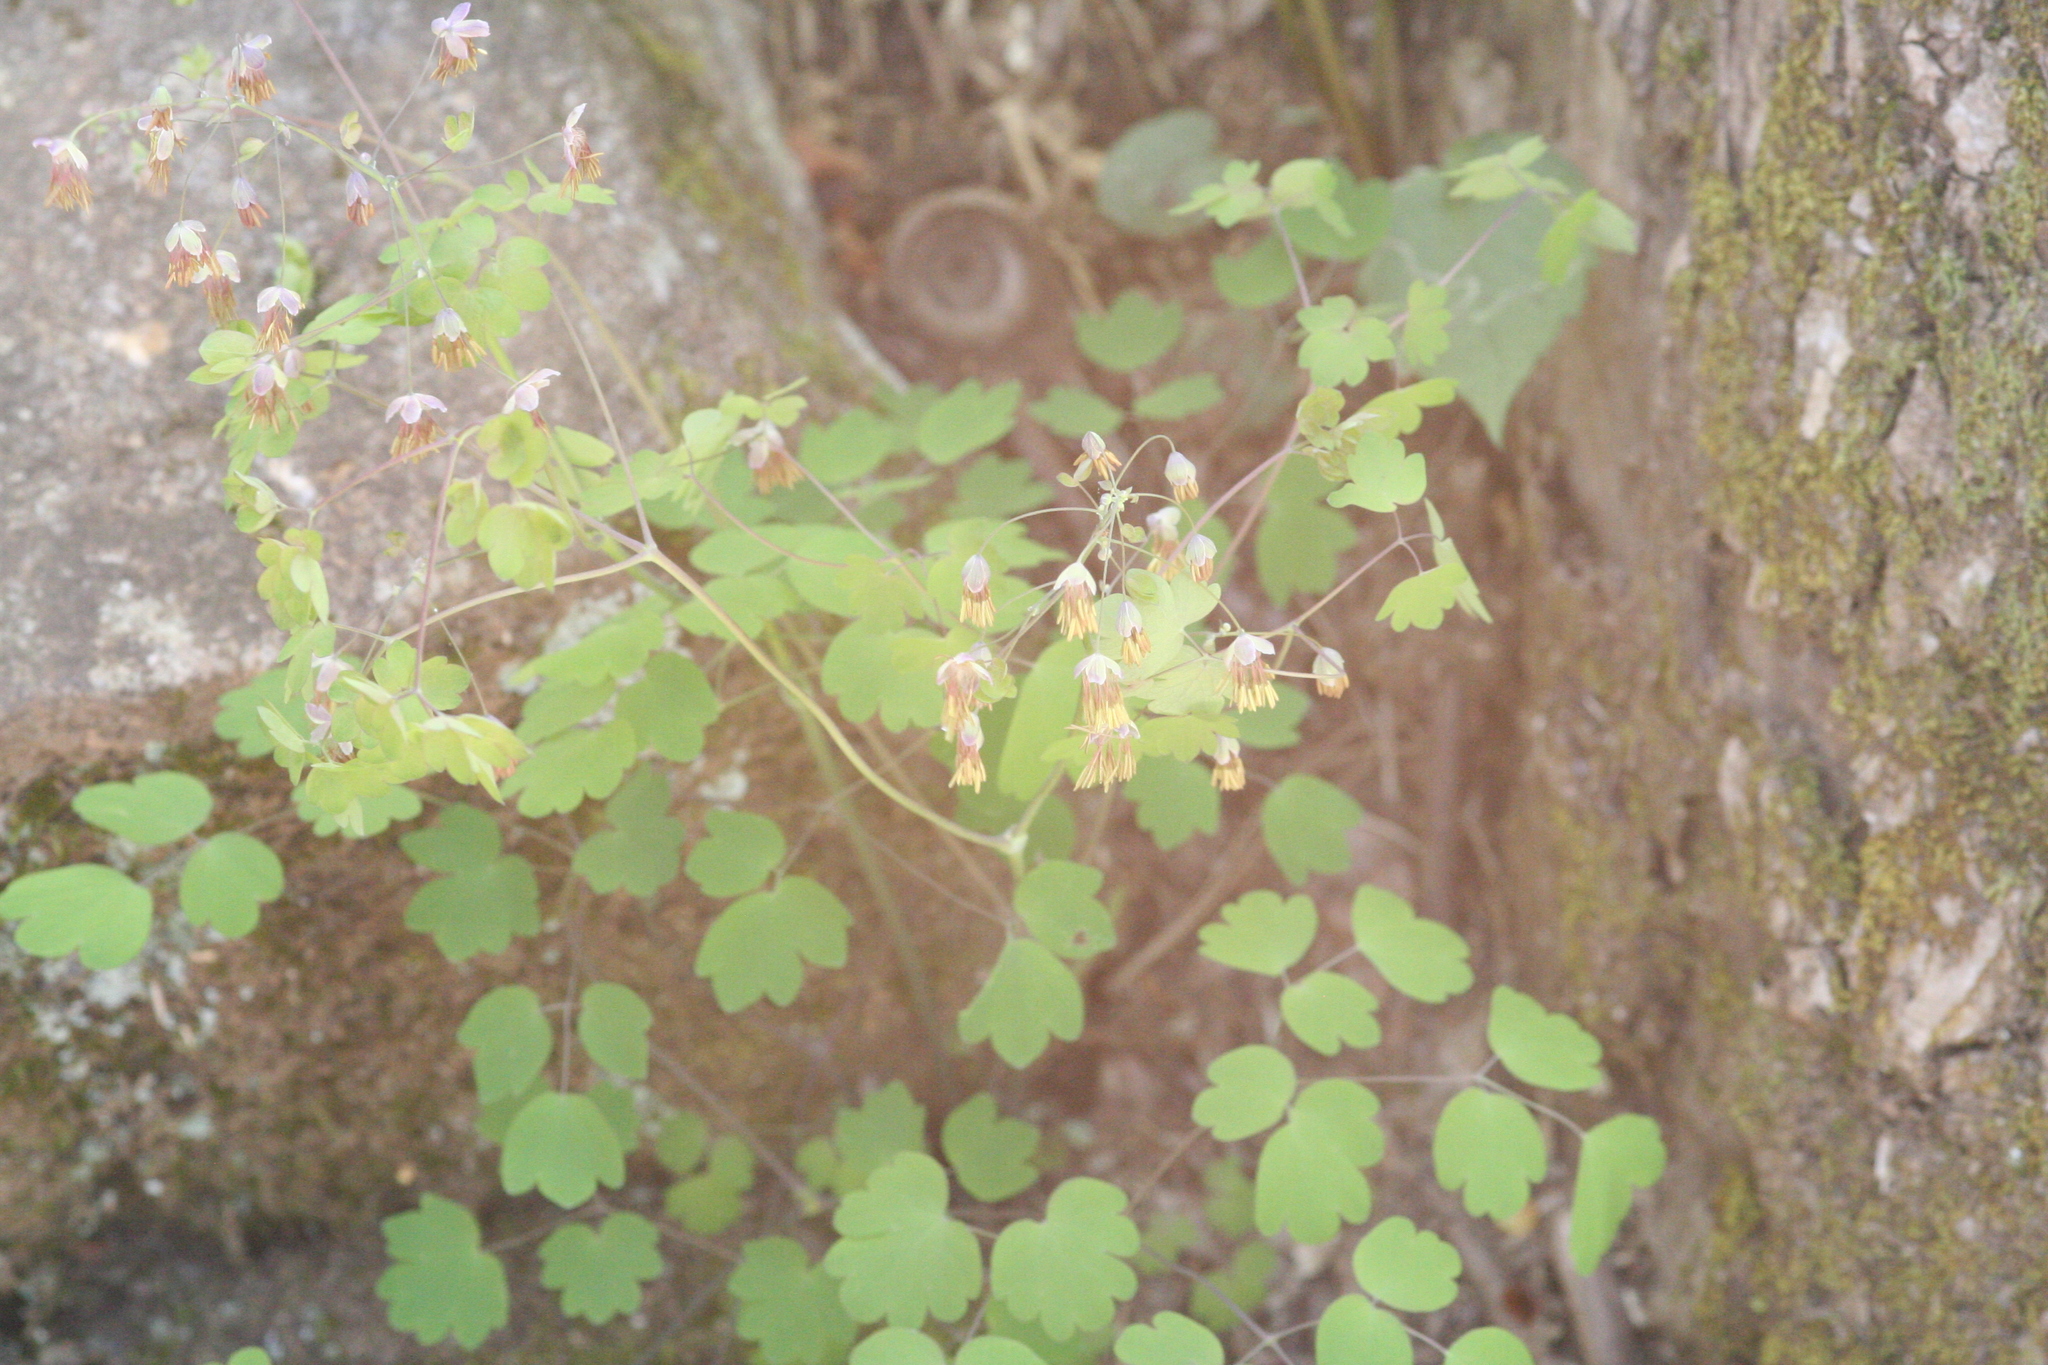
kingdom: Plantae
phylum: Tracheophyta
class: Magnoliopsida
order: Ranunculales
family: Ranunculaceae
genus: Thalictrum
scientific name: Thalictrum dioicum
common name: Early meadow-rue
